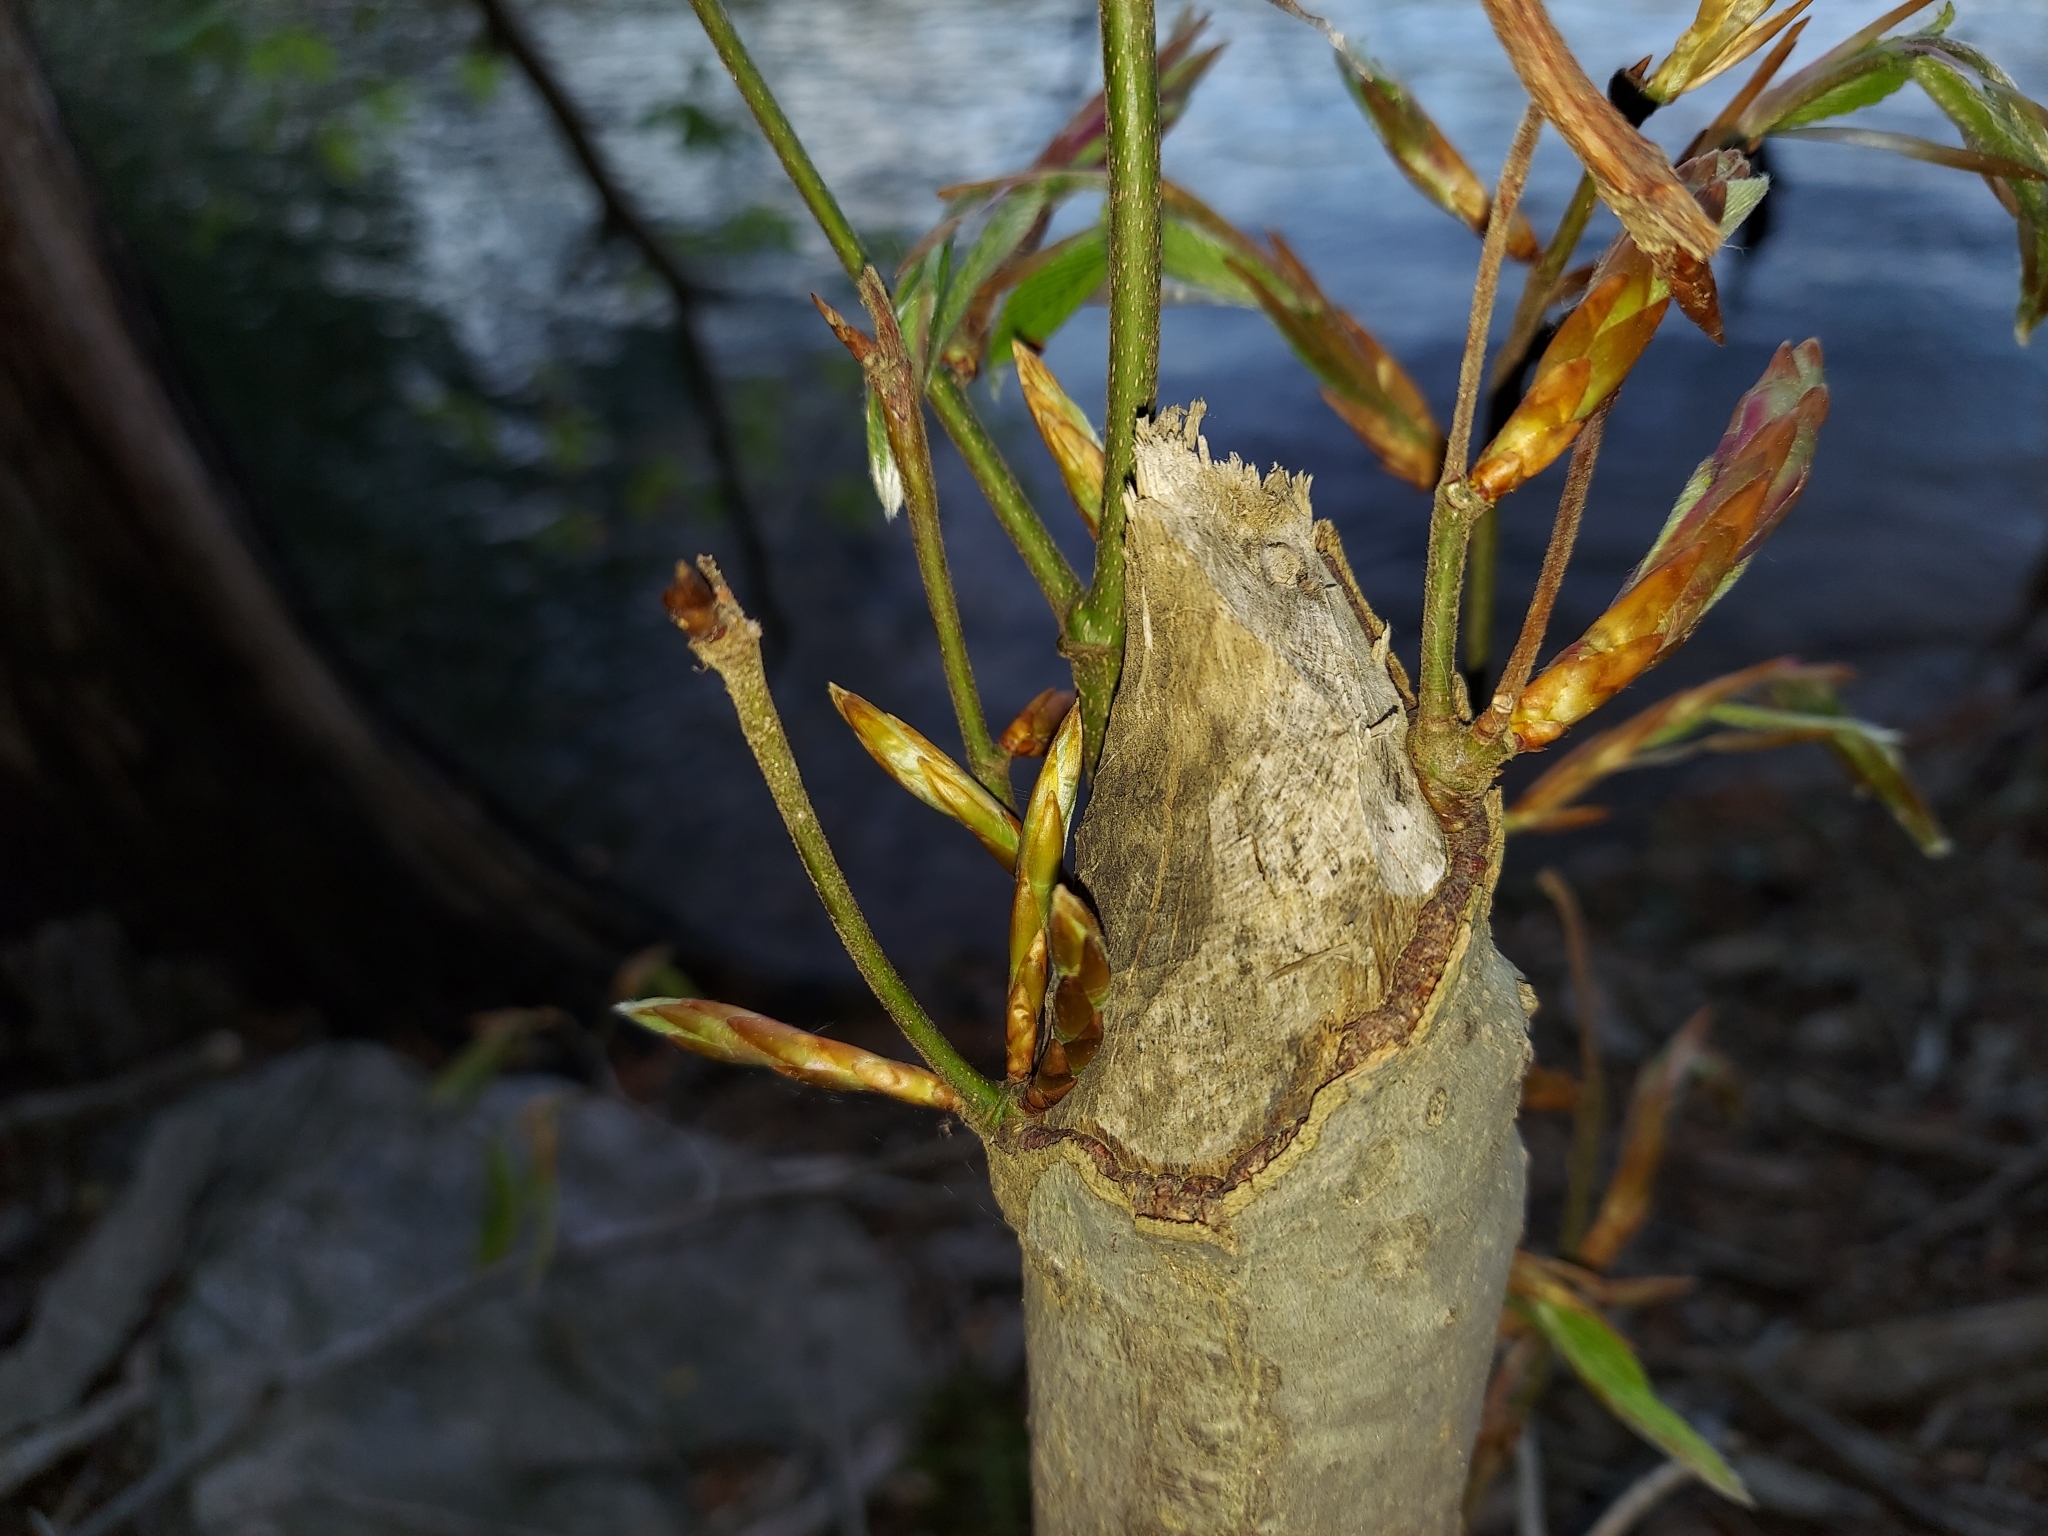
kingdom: Animalia
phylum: Chordata
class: Mammalia
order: Rodentia
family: Castoridae
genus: Castor
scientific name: Castor canadensis
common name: American beaver
